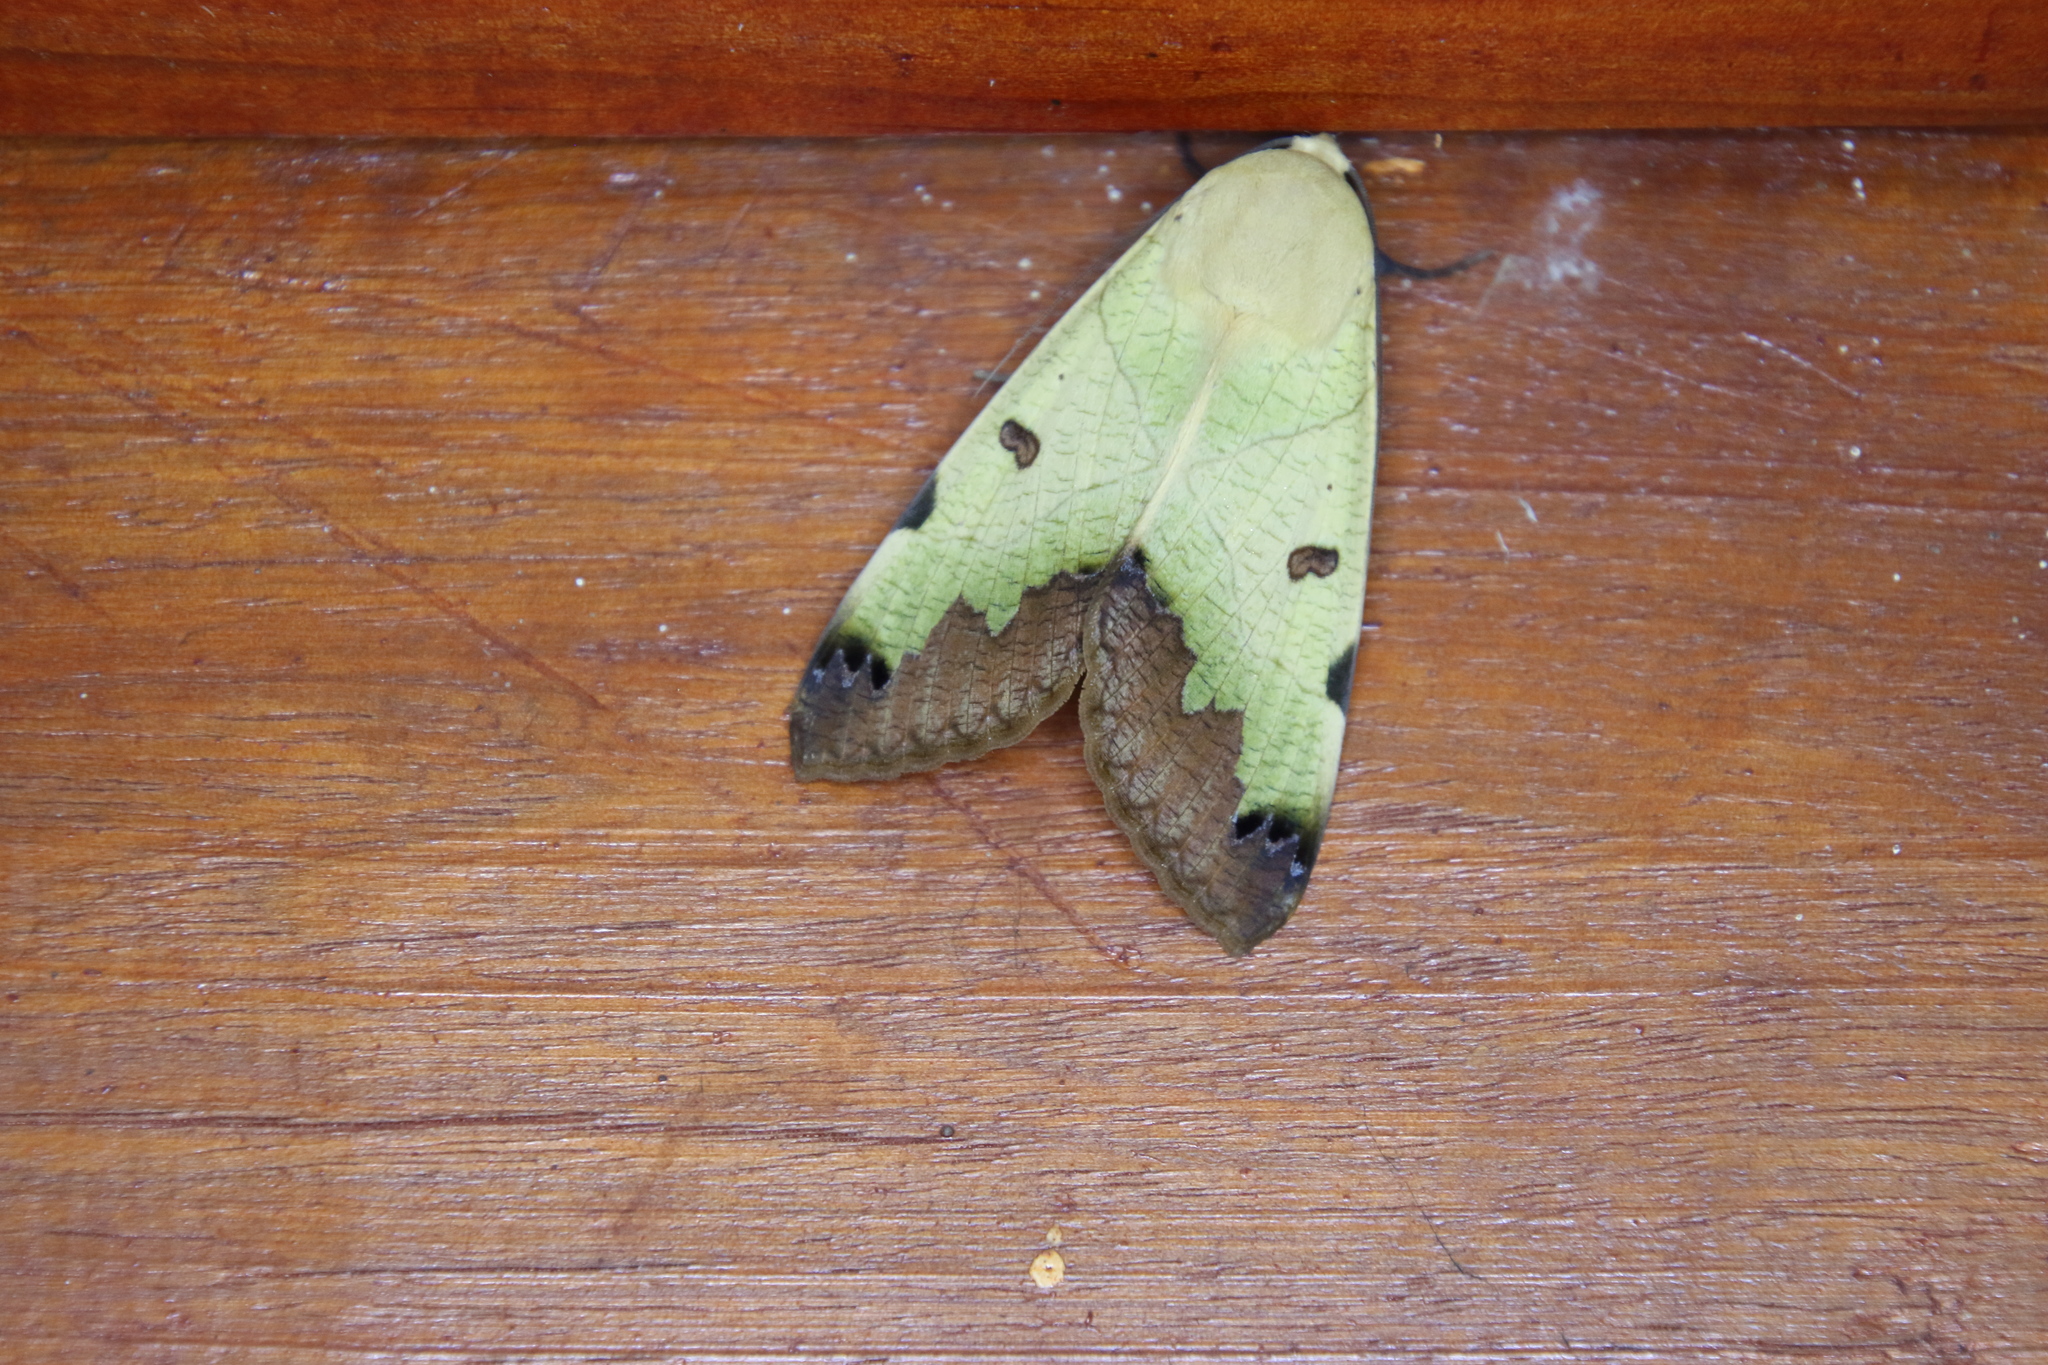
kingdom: Animalia
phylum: Arthropoda
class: Insecta
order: Lepidoptera
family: Erebidae
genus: Ophiusa
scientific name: Ophiusa tirhaca
